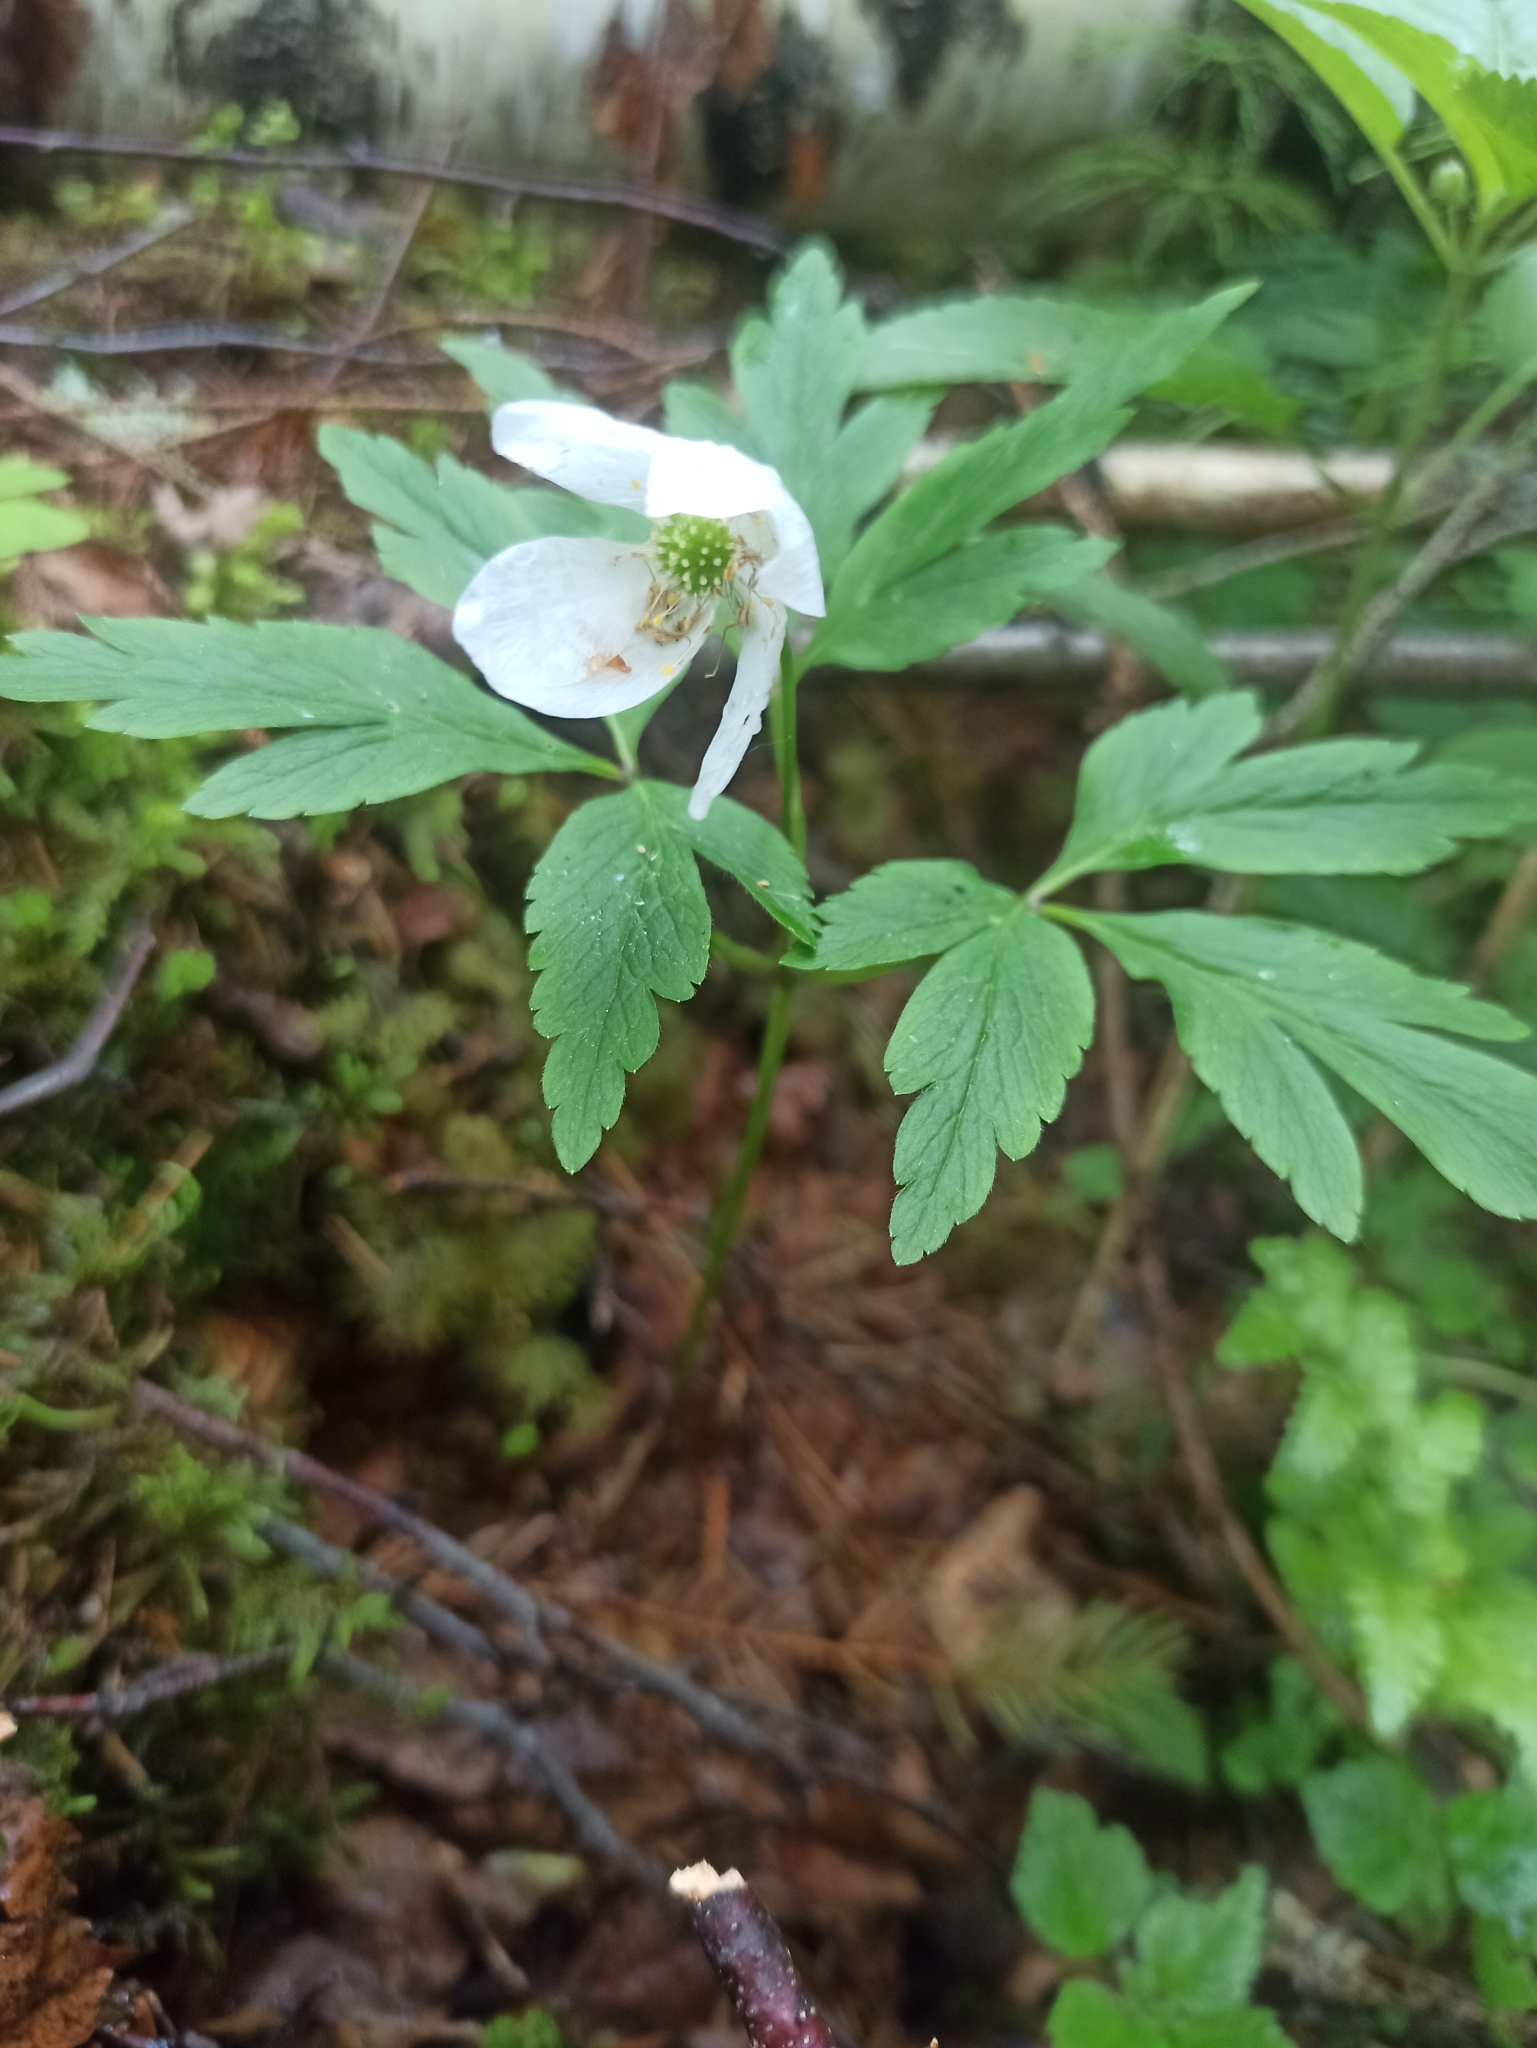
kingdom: Plantae
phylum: Tracheophyta
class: Magnoliopsida
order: Ranunculales
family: Ranunculaceae
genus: Anemone
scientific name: Anemone nemorosa
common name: Wood anemone
